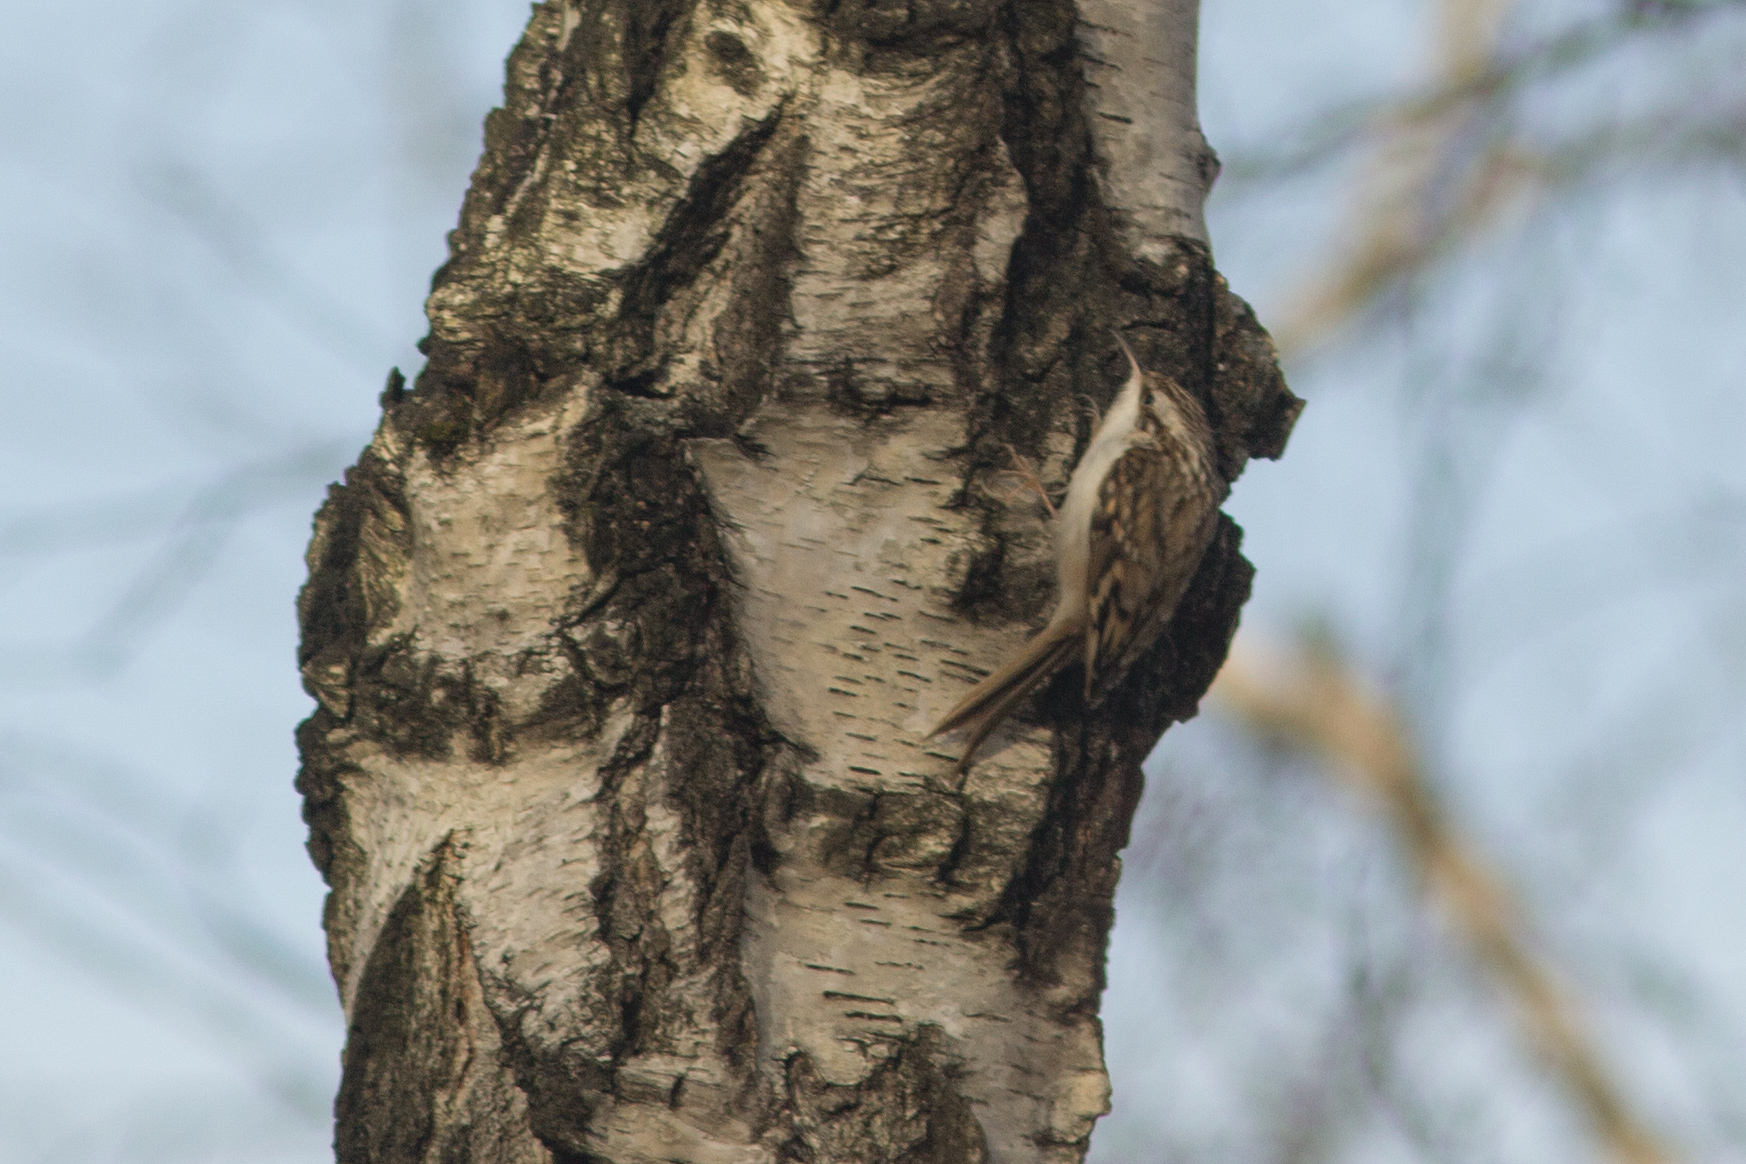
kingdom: Animalia
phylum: Chordata
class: Aves
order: Passeriformes
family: Certhiidae
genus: Certhia
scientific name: Certhia familiaris
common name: Eurasian treecreeper
